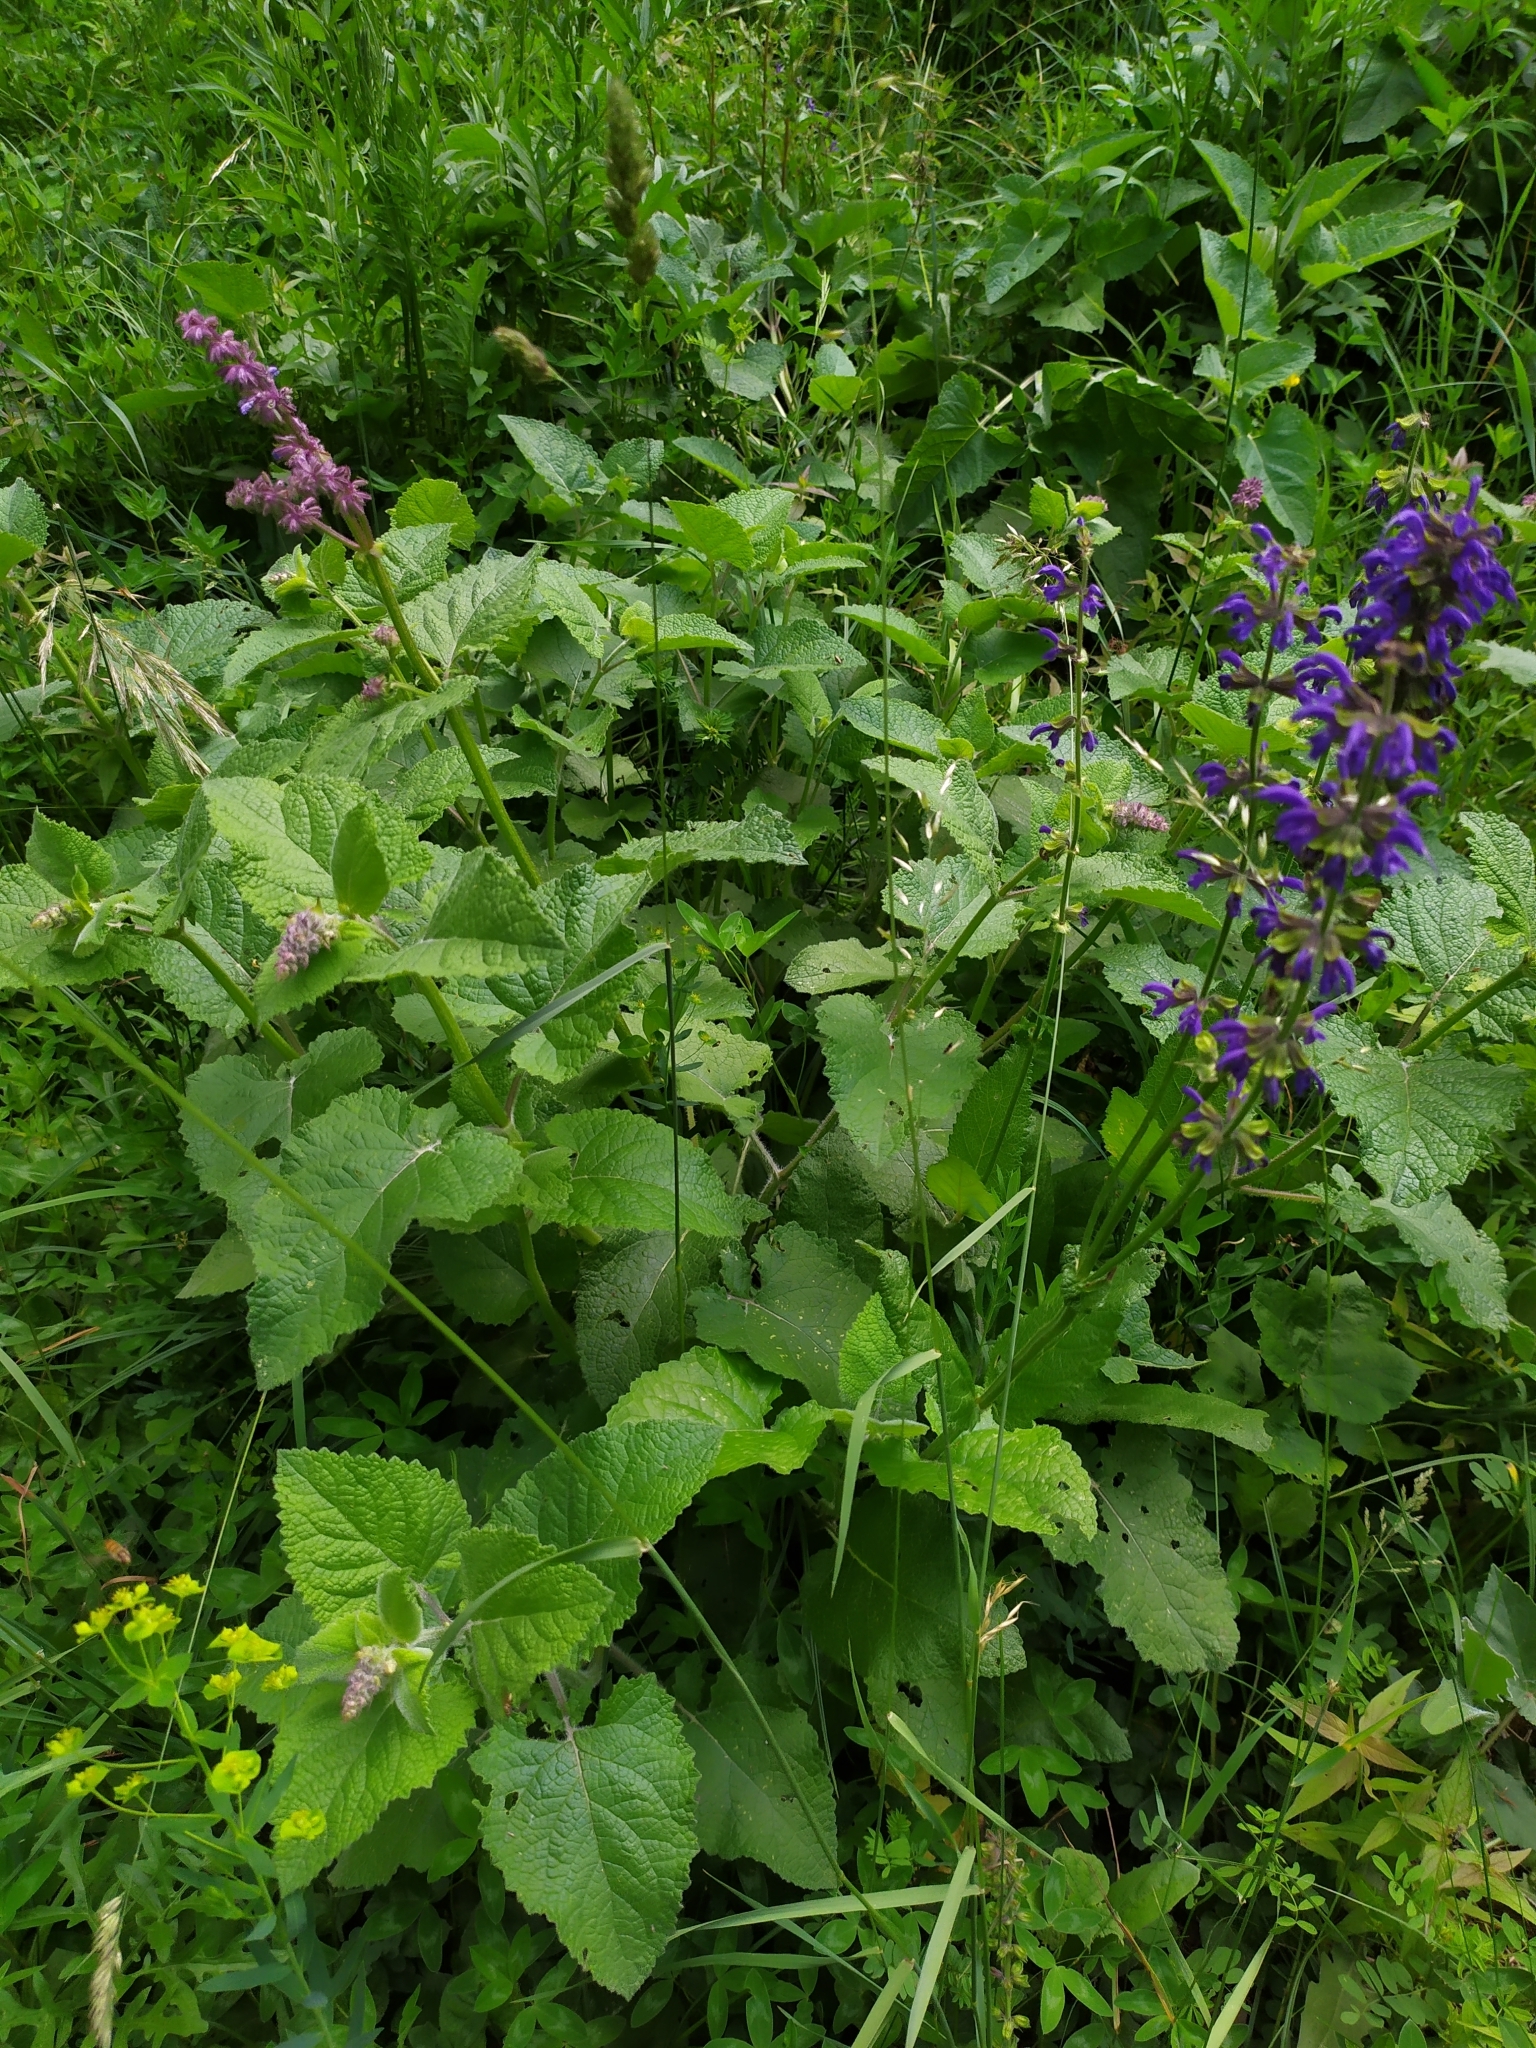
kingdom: Plantae
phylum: Tracheophyta
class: Magnoliopsida
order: Lamiales
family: Lamiaceae
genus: Salvia
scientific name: Salvia pratensis
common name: Meadow sage
